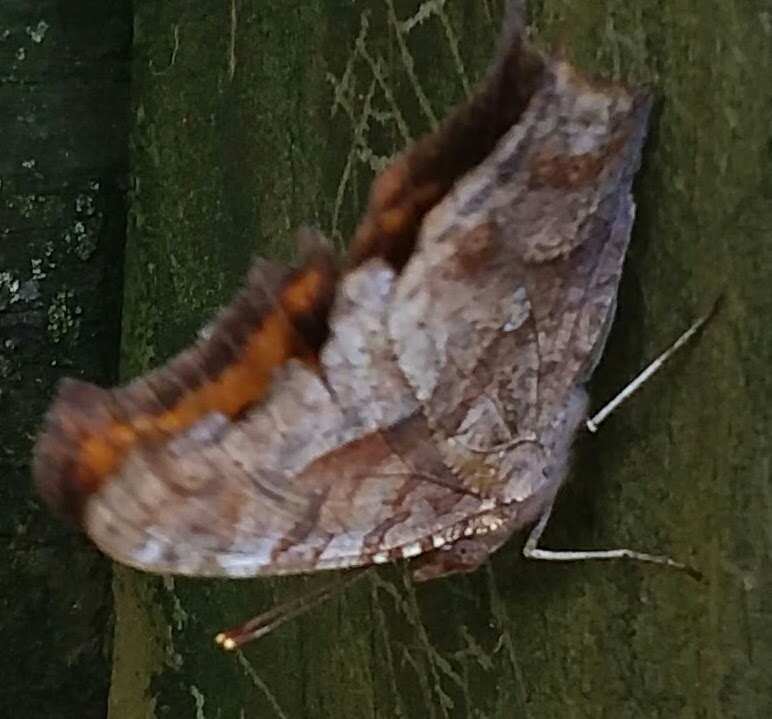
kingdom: Animalia
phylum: Arthropoda
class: Insecta
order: Lepidoptera
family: Nymphalidae
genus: Polygonia
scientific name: Polygonia interrogationis
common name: Question mark
